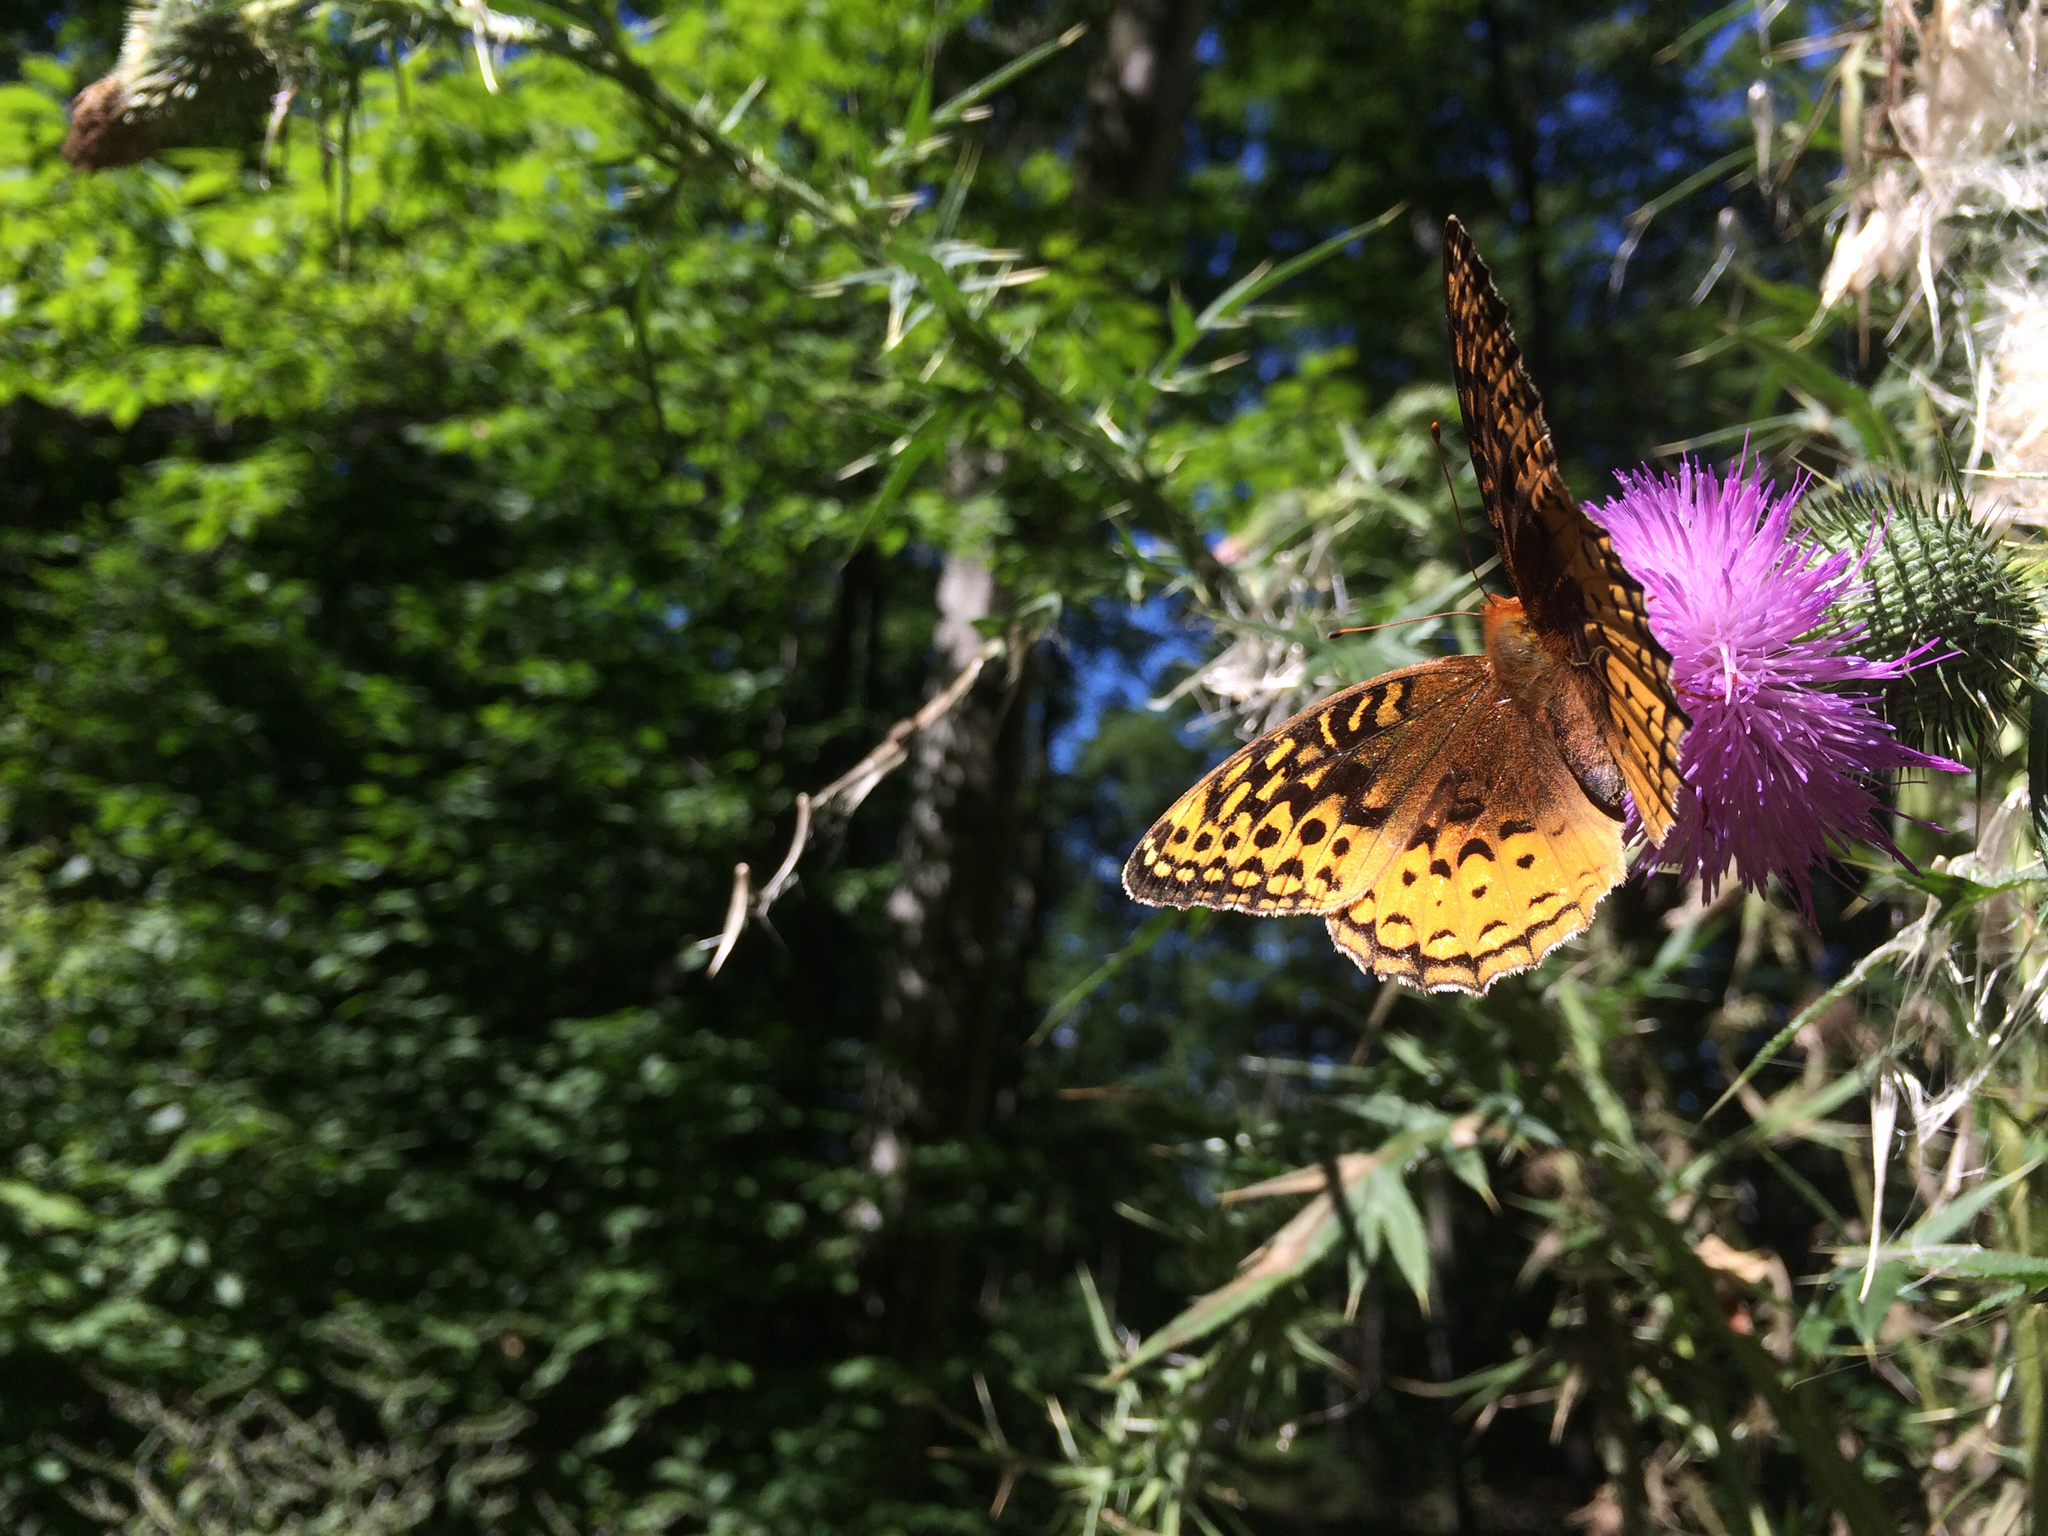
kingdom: Animalia
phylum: Arthropoda
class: Insecta
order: Lepidoptera
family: Nymphalidae
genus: Speyeria
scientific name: Speyeria cybele
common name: Great spangled fritillary
